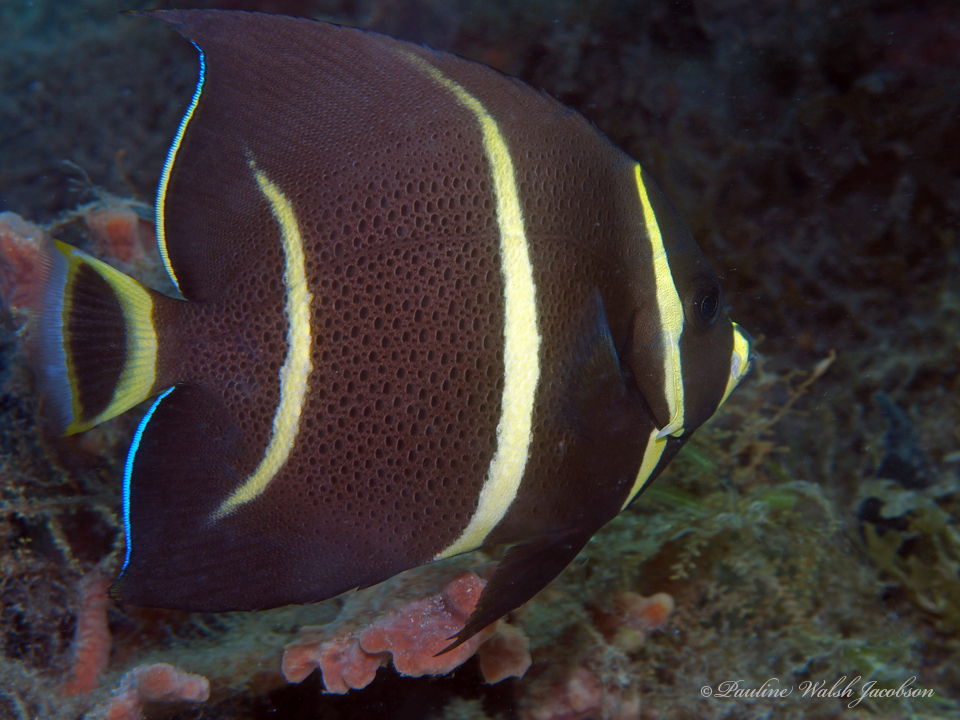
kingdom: Animalia
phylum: Chordata
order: Perciformes
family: Pomacanthidae
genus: Pomacanthus
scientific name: Pomacanthus arcuatus
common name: Gray angelfish
